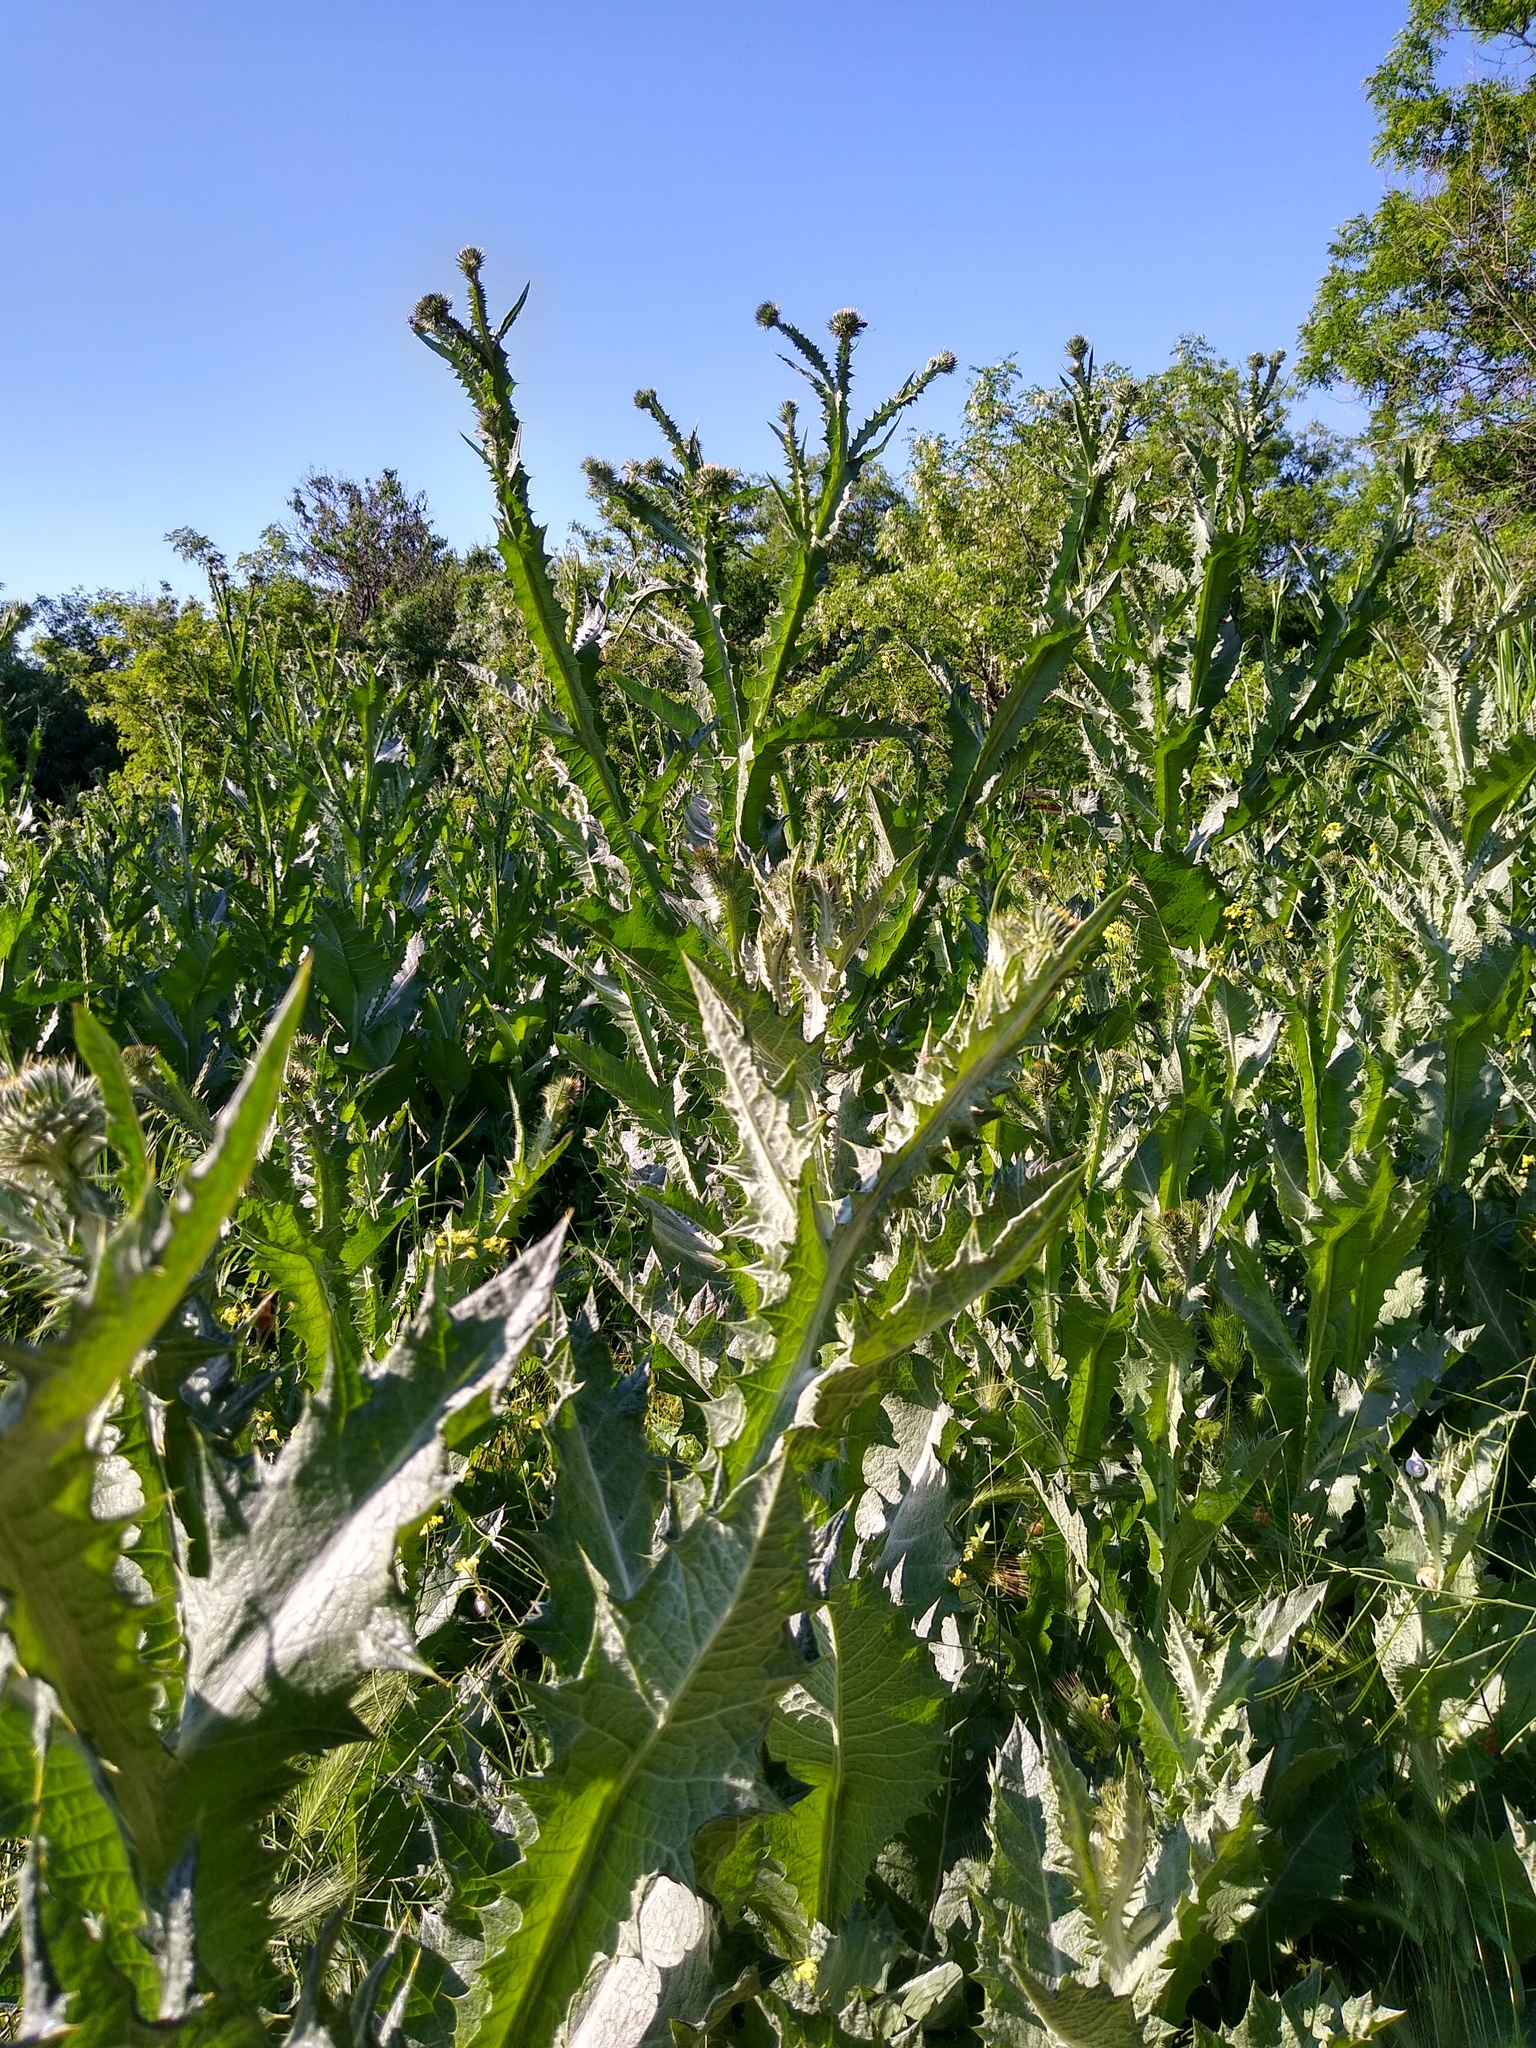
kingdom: Plantae
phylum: Tracheophyta
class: Magnoliopsida
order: Asterales
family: Asteraceae
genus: Onopordum
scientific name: Onopordum acanthium
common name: Scotch thistle
